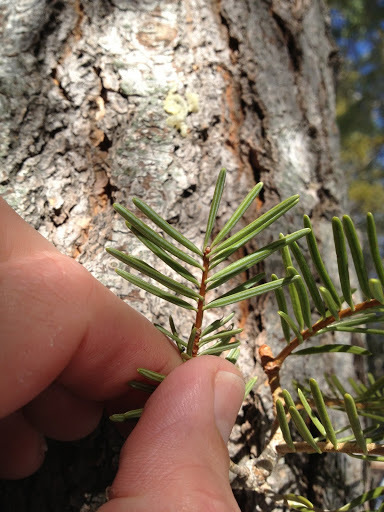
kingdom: Plantae
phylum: Tracheophyta
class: Pinopsida
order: Pinales
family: Pinaceae
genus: Abies
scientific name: Abies concolor
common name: Colorado fir
